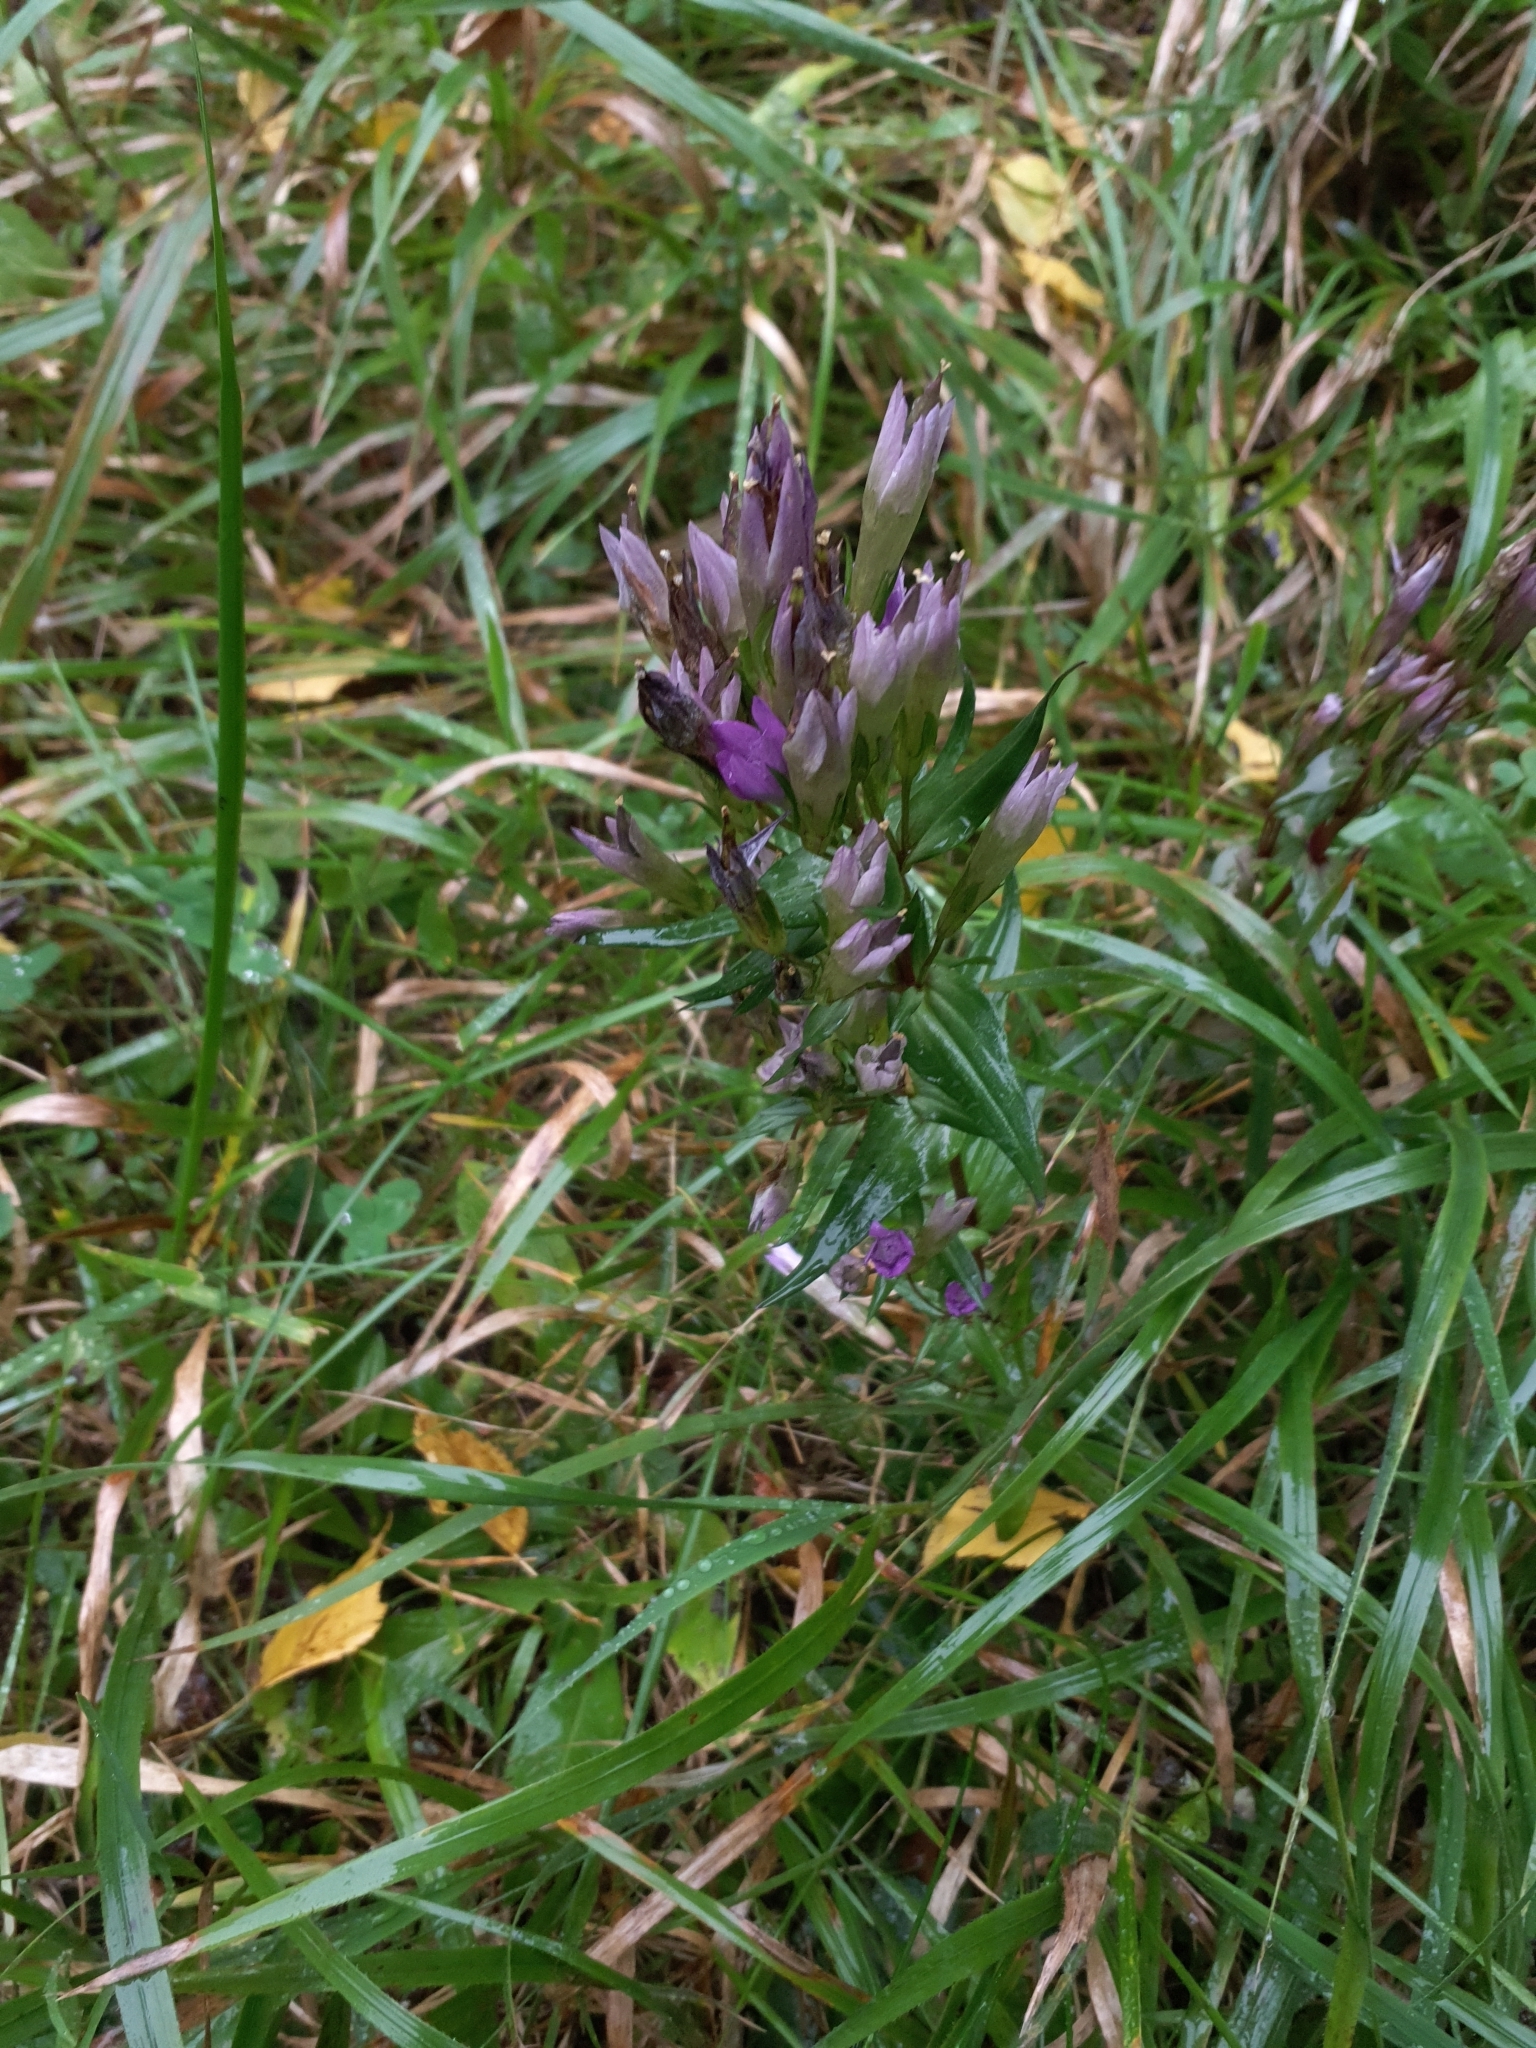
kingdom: Plantae
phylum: Tracheophyta
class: Magnoliopsida
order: Gentianales
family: Gentianaceae
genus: Gentianella
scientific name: Gentianella praecox
